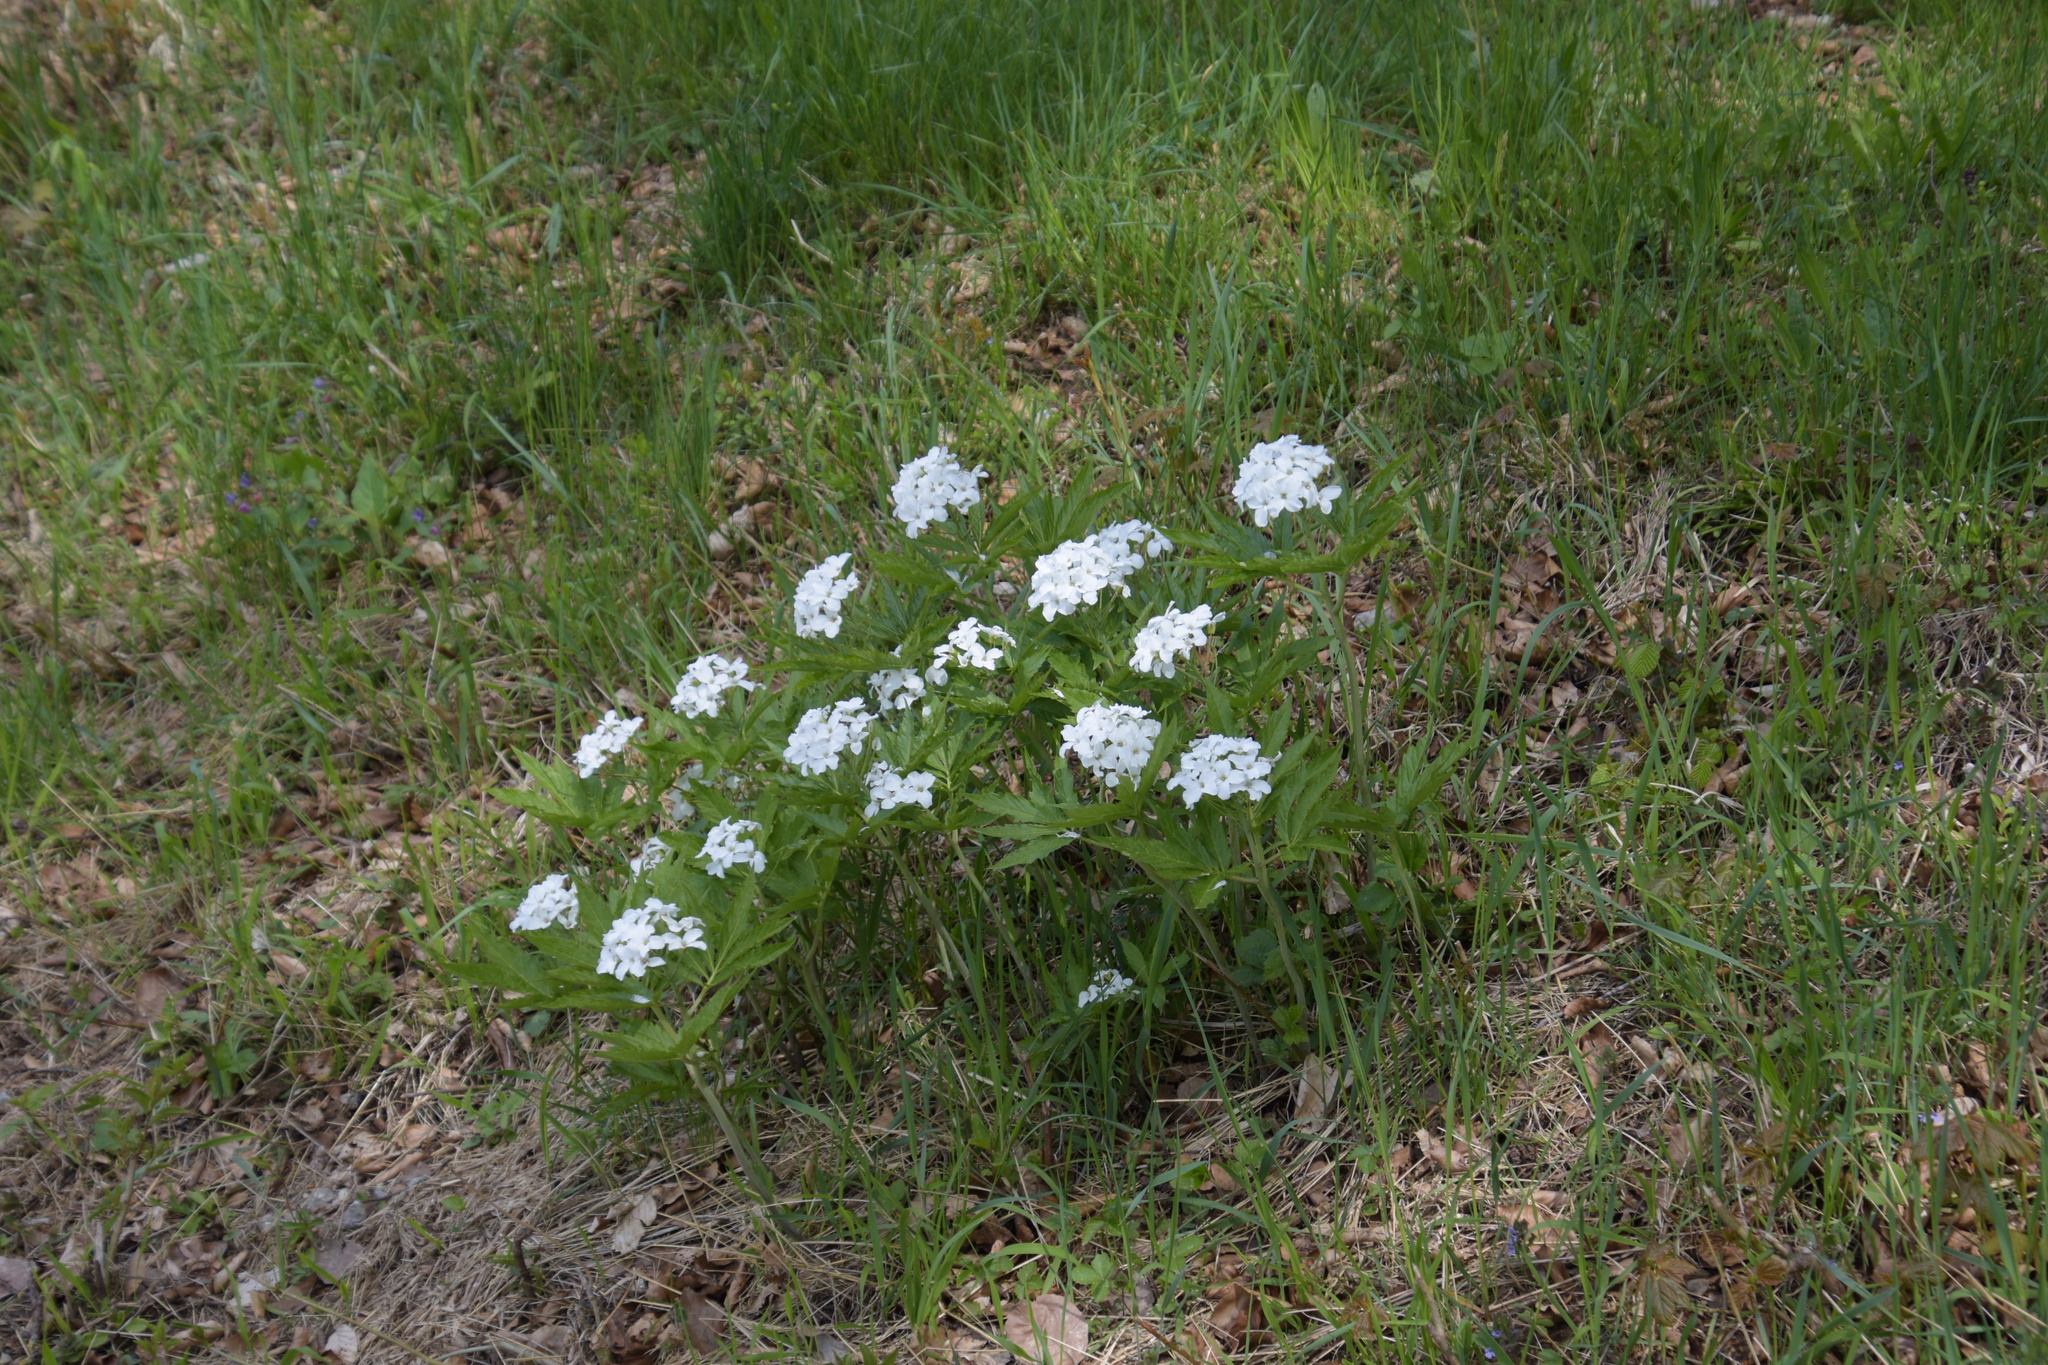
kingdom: Plantae
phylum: Tracheophyta
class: Magnoliopsida
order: Brassicales
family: Brassicaceae
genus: Cardamine
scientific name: Cardamine heptaphylla
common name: Pinnate coralroot
